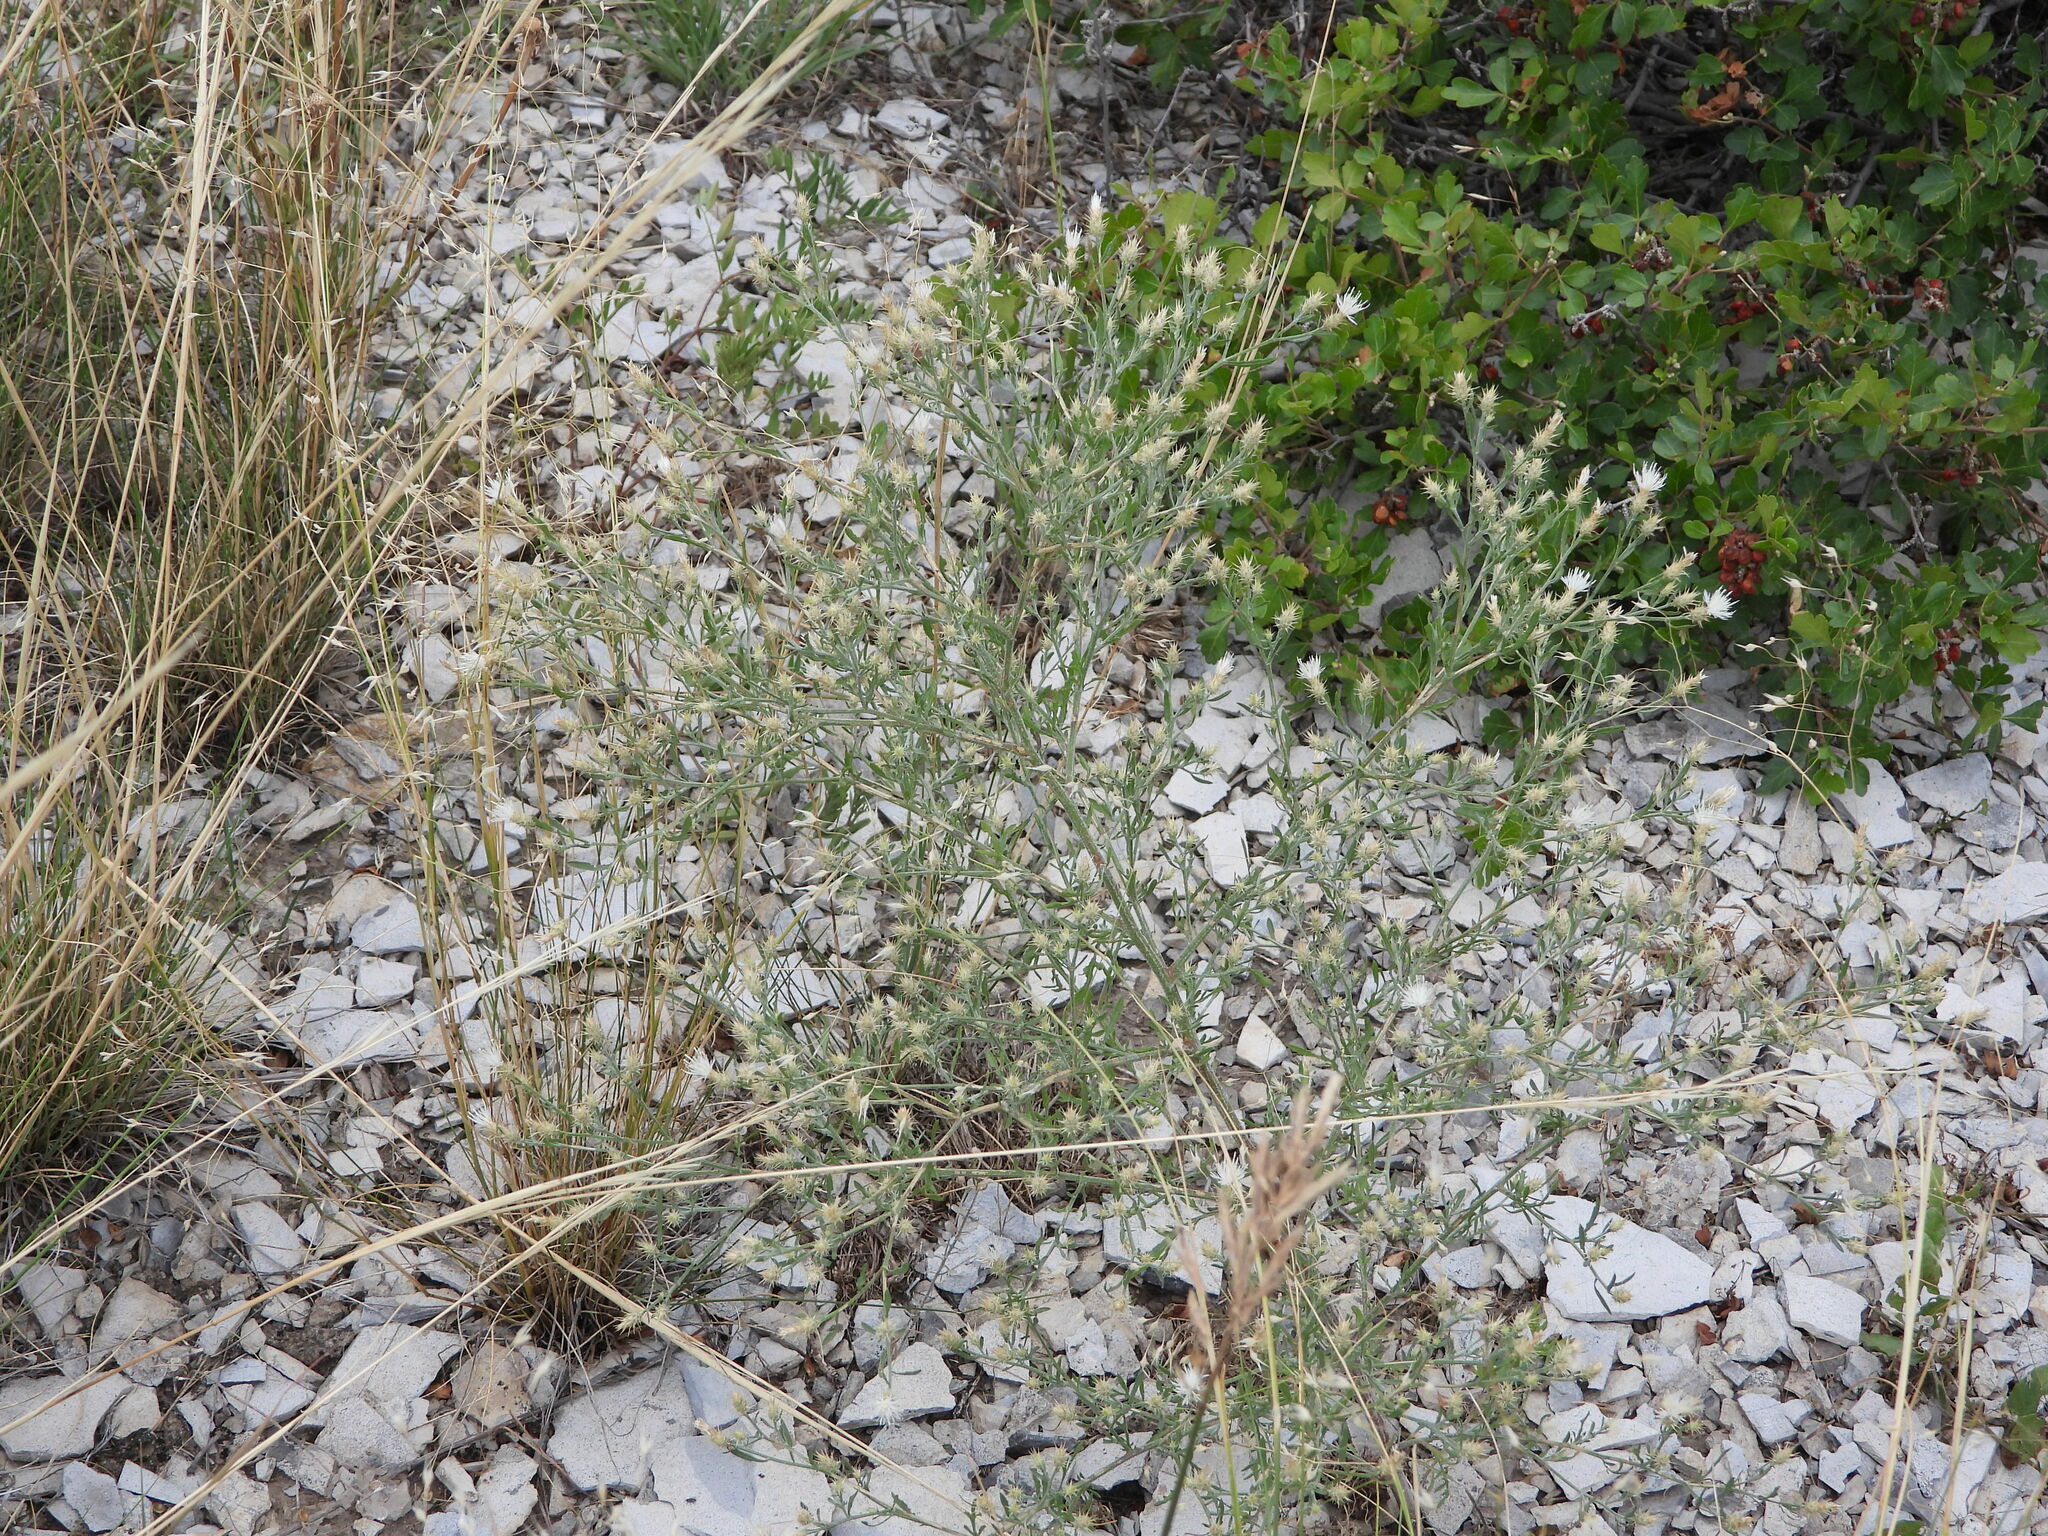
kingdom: Plantae
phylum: Tracheophyta
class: Magnoliopsida
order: Asterales
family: Asteraceae
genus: Centaurea
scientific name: Centaurea diffusa
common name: Diffuse knapweed
